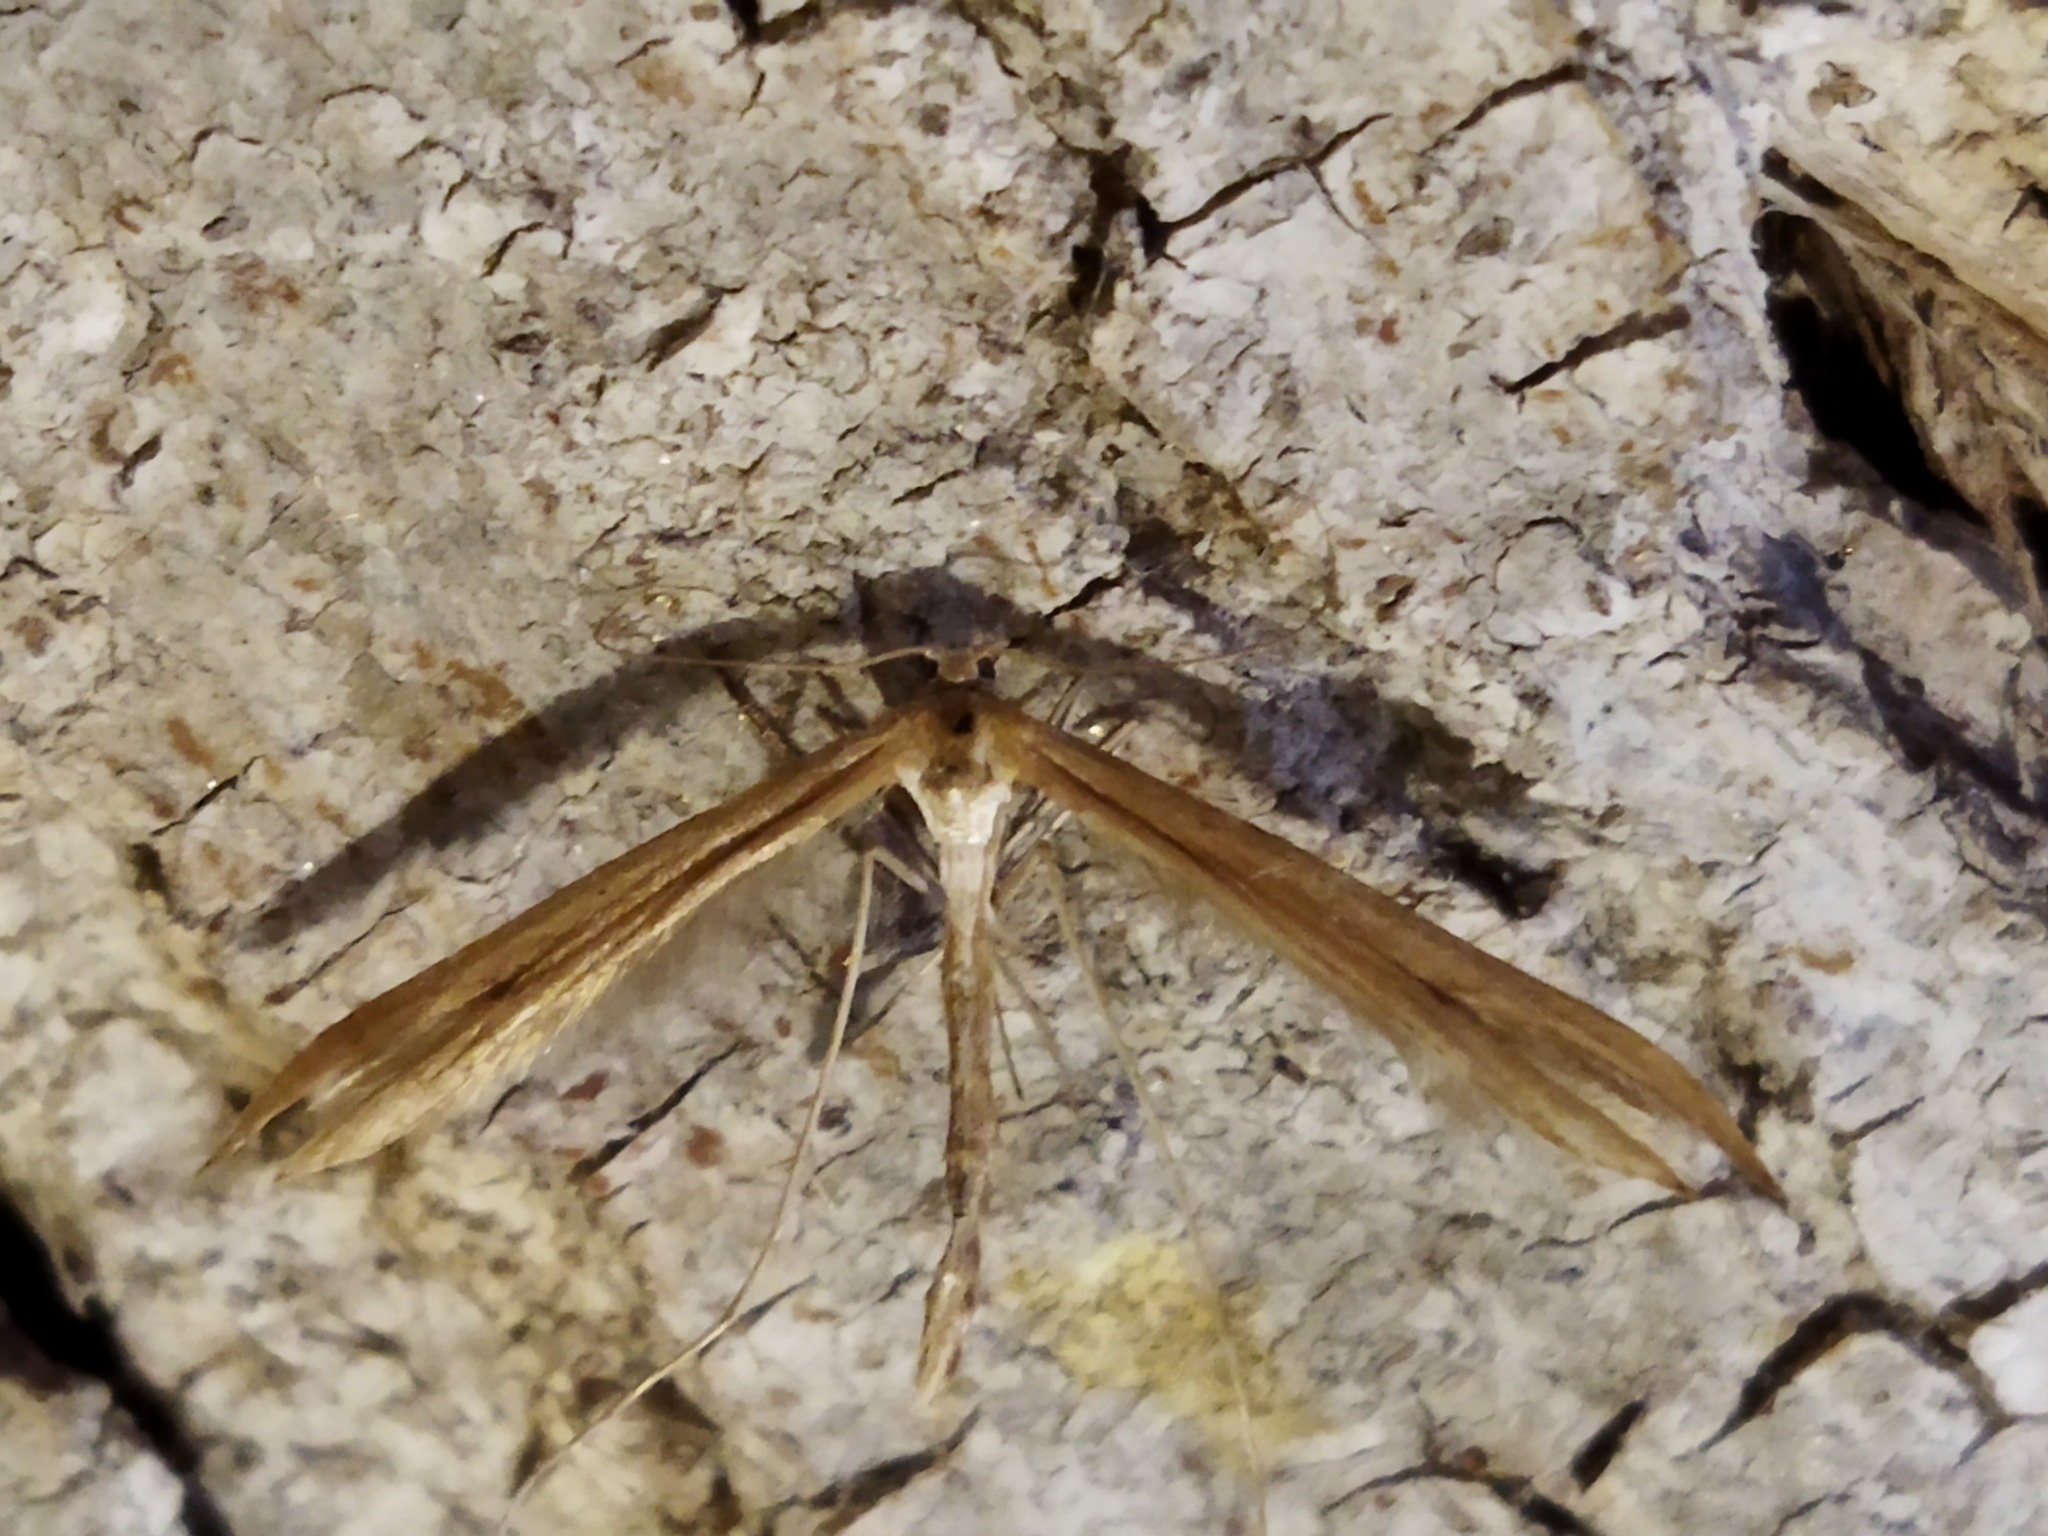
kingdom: Animalia
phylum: Arthropoda
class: Insecta
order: Lepidoptera
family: Pterophoridae
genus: Emmelina
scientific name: Emmelina monodactyla
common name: Common plume
